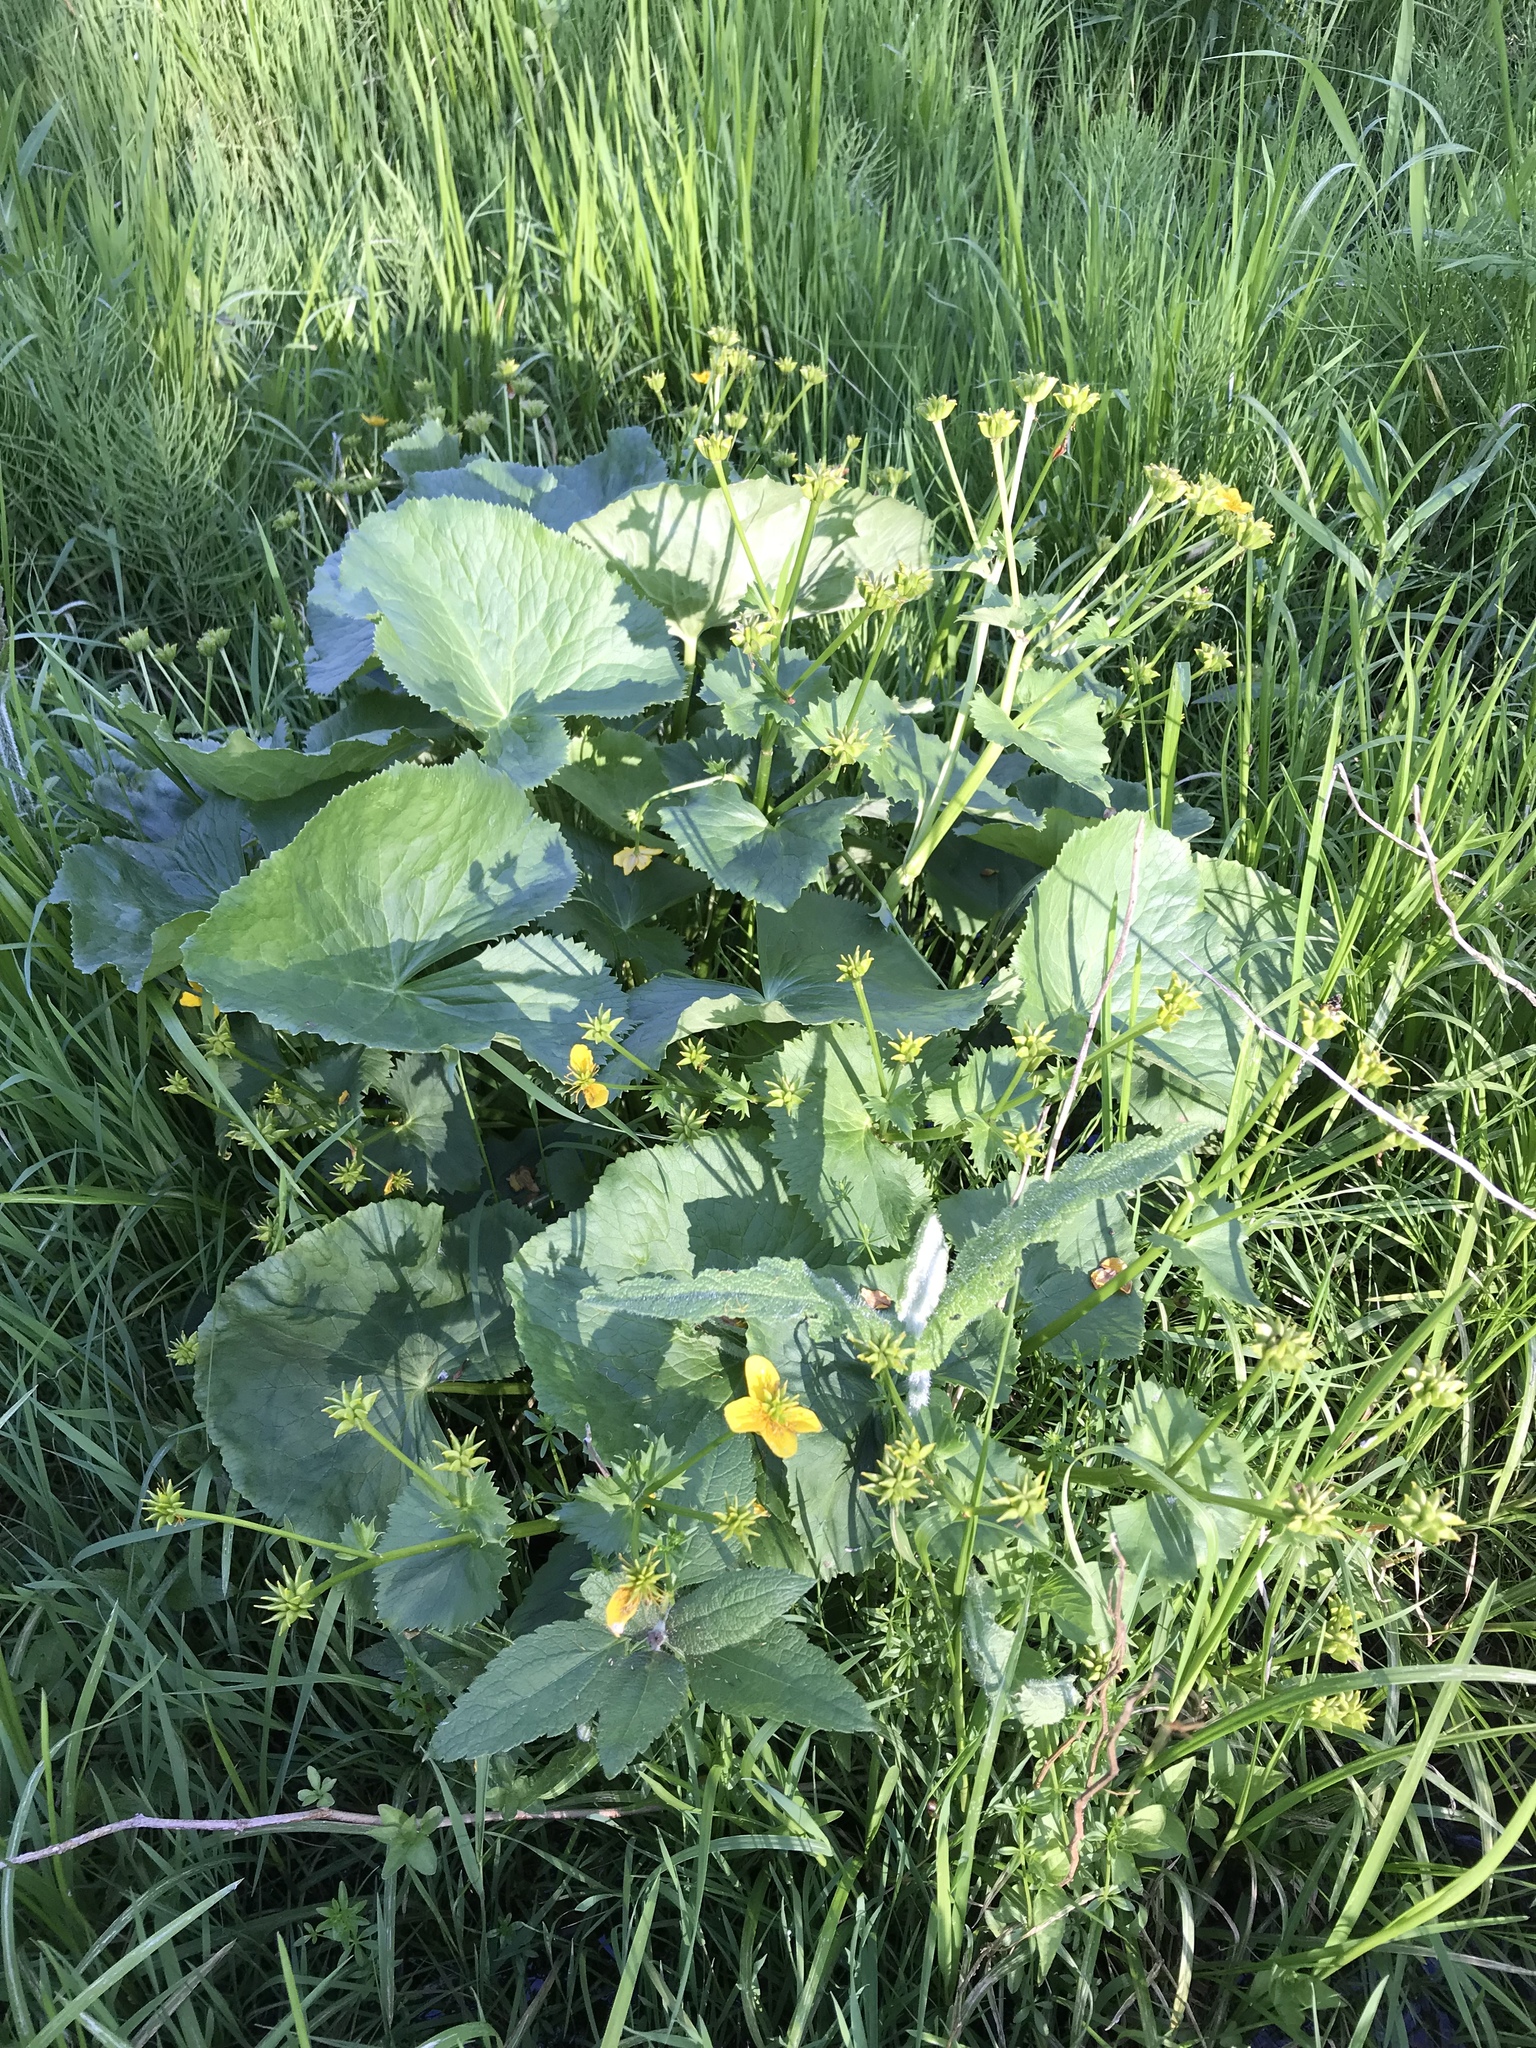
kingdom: Plantae
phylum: Tracheophyta
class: Magnoliopsida
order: Ranunculales
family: Ranunculaceae
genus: Caltha
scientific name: Caltha palustris
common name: Marsh marigold
